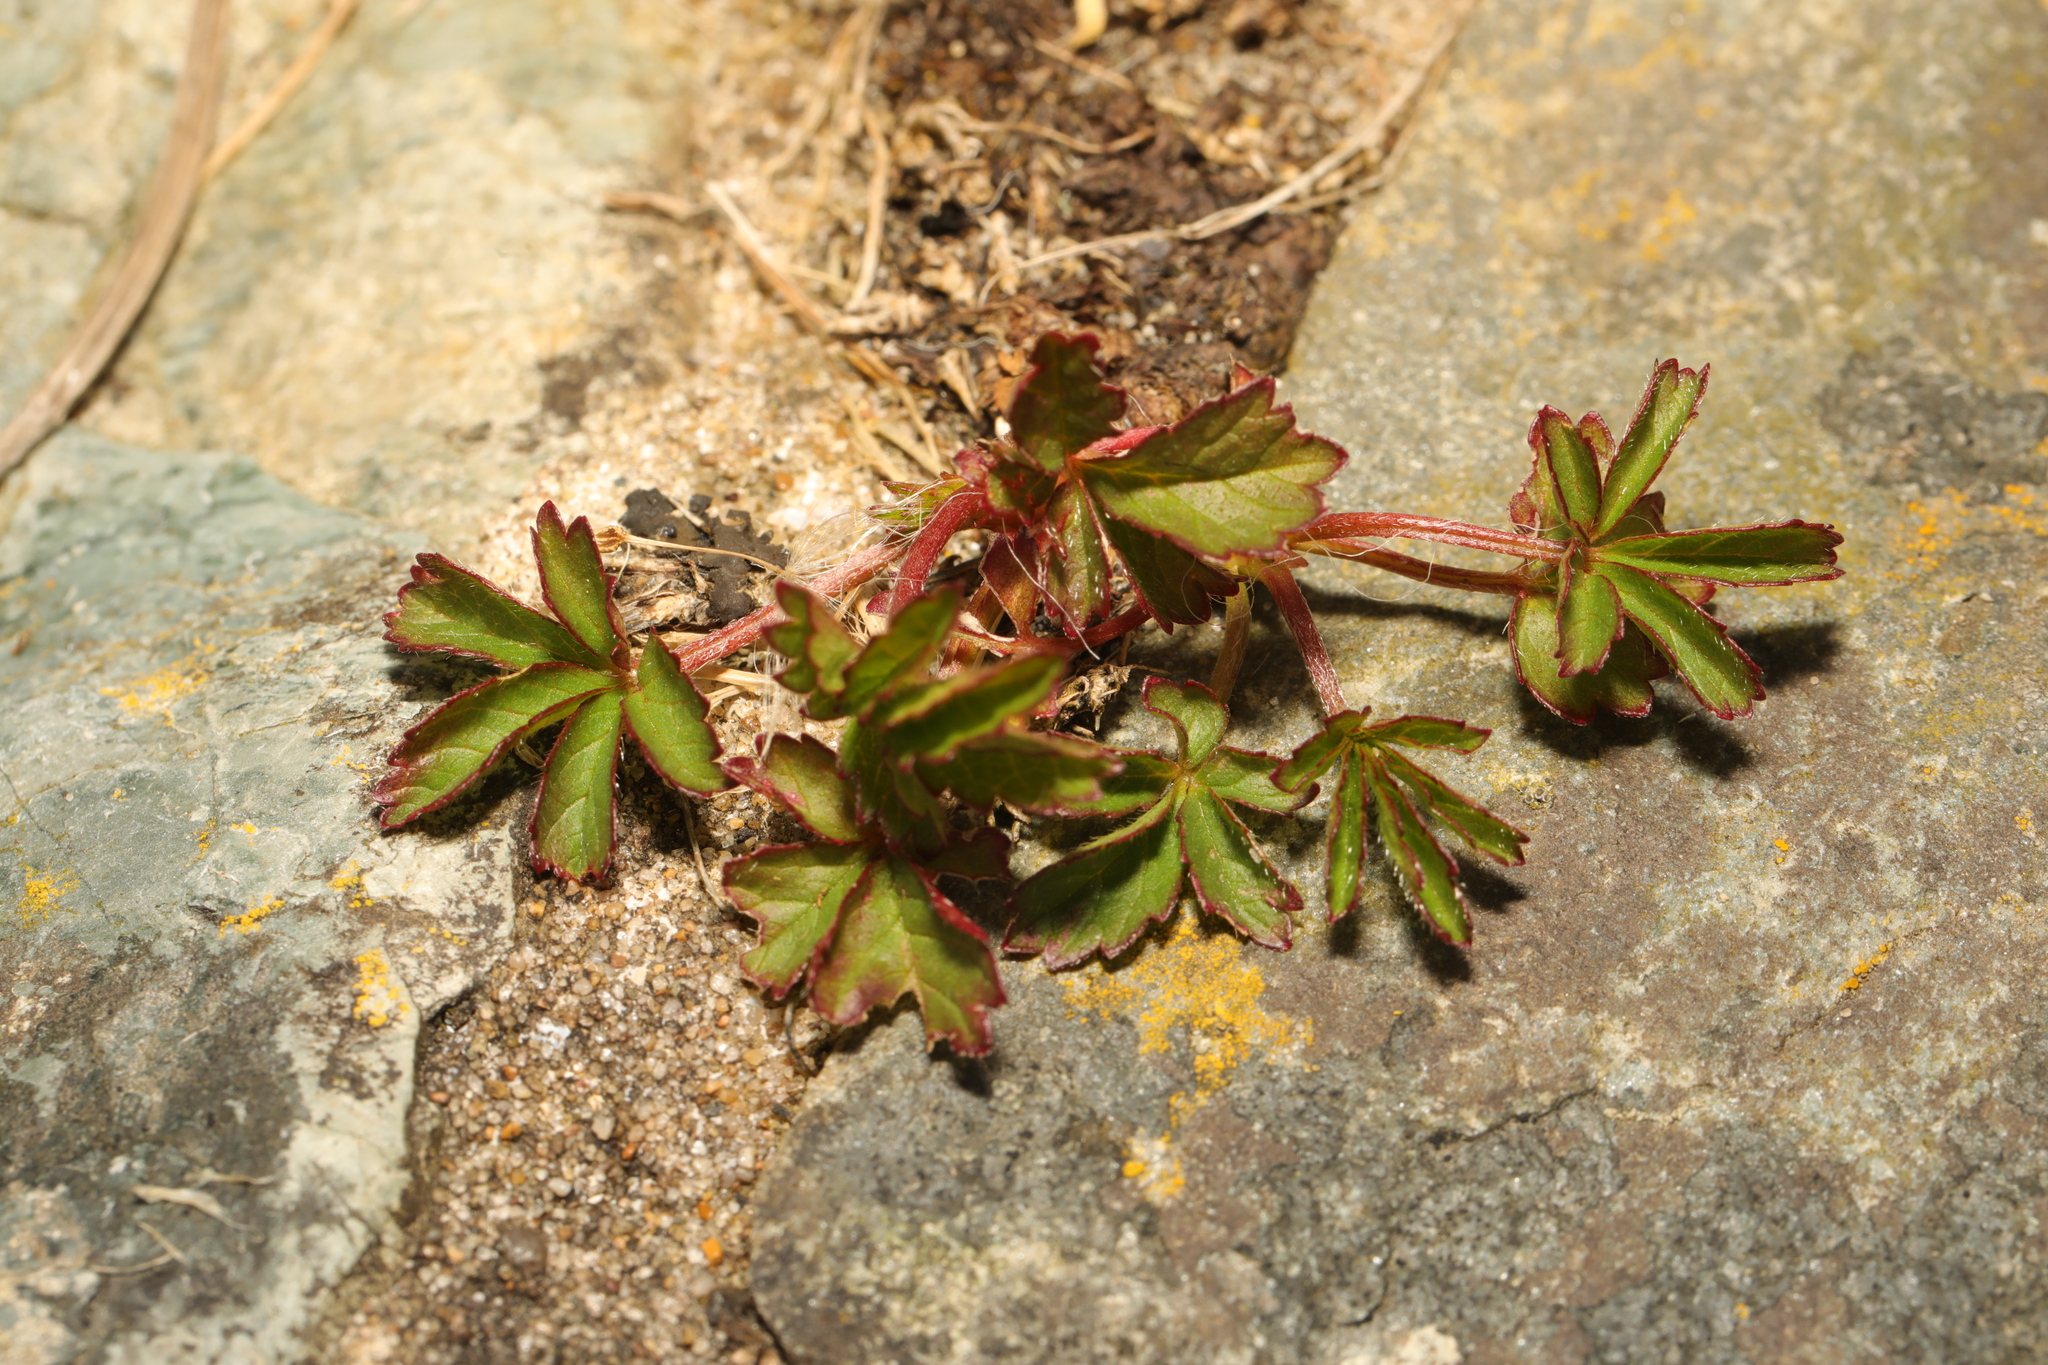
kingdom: Plantae
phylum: Tracheophyta
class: Magnoliopsida
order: Rosales
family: Rosaceae
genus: Potentilla
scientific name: Potentilla reptans
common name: Creeping cinquefoil
